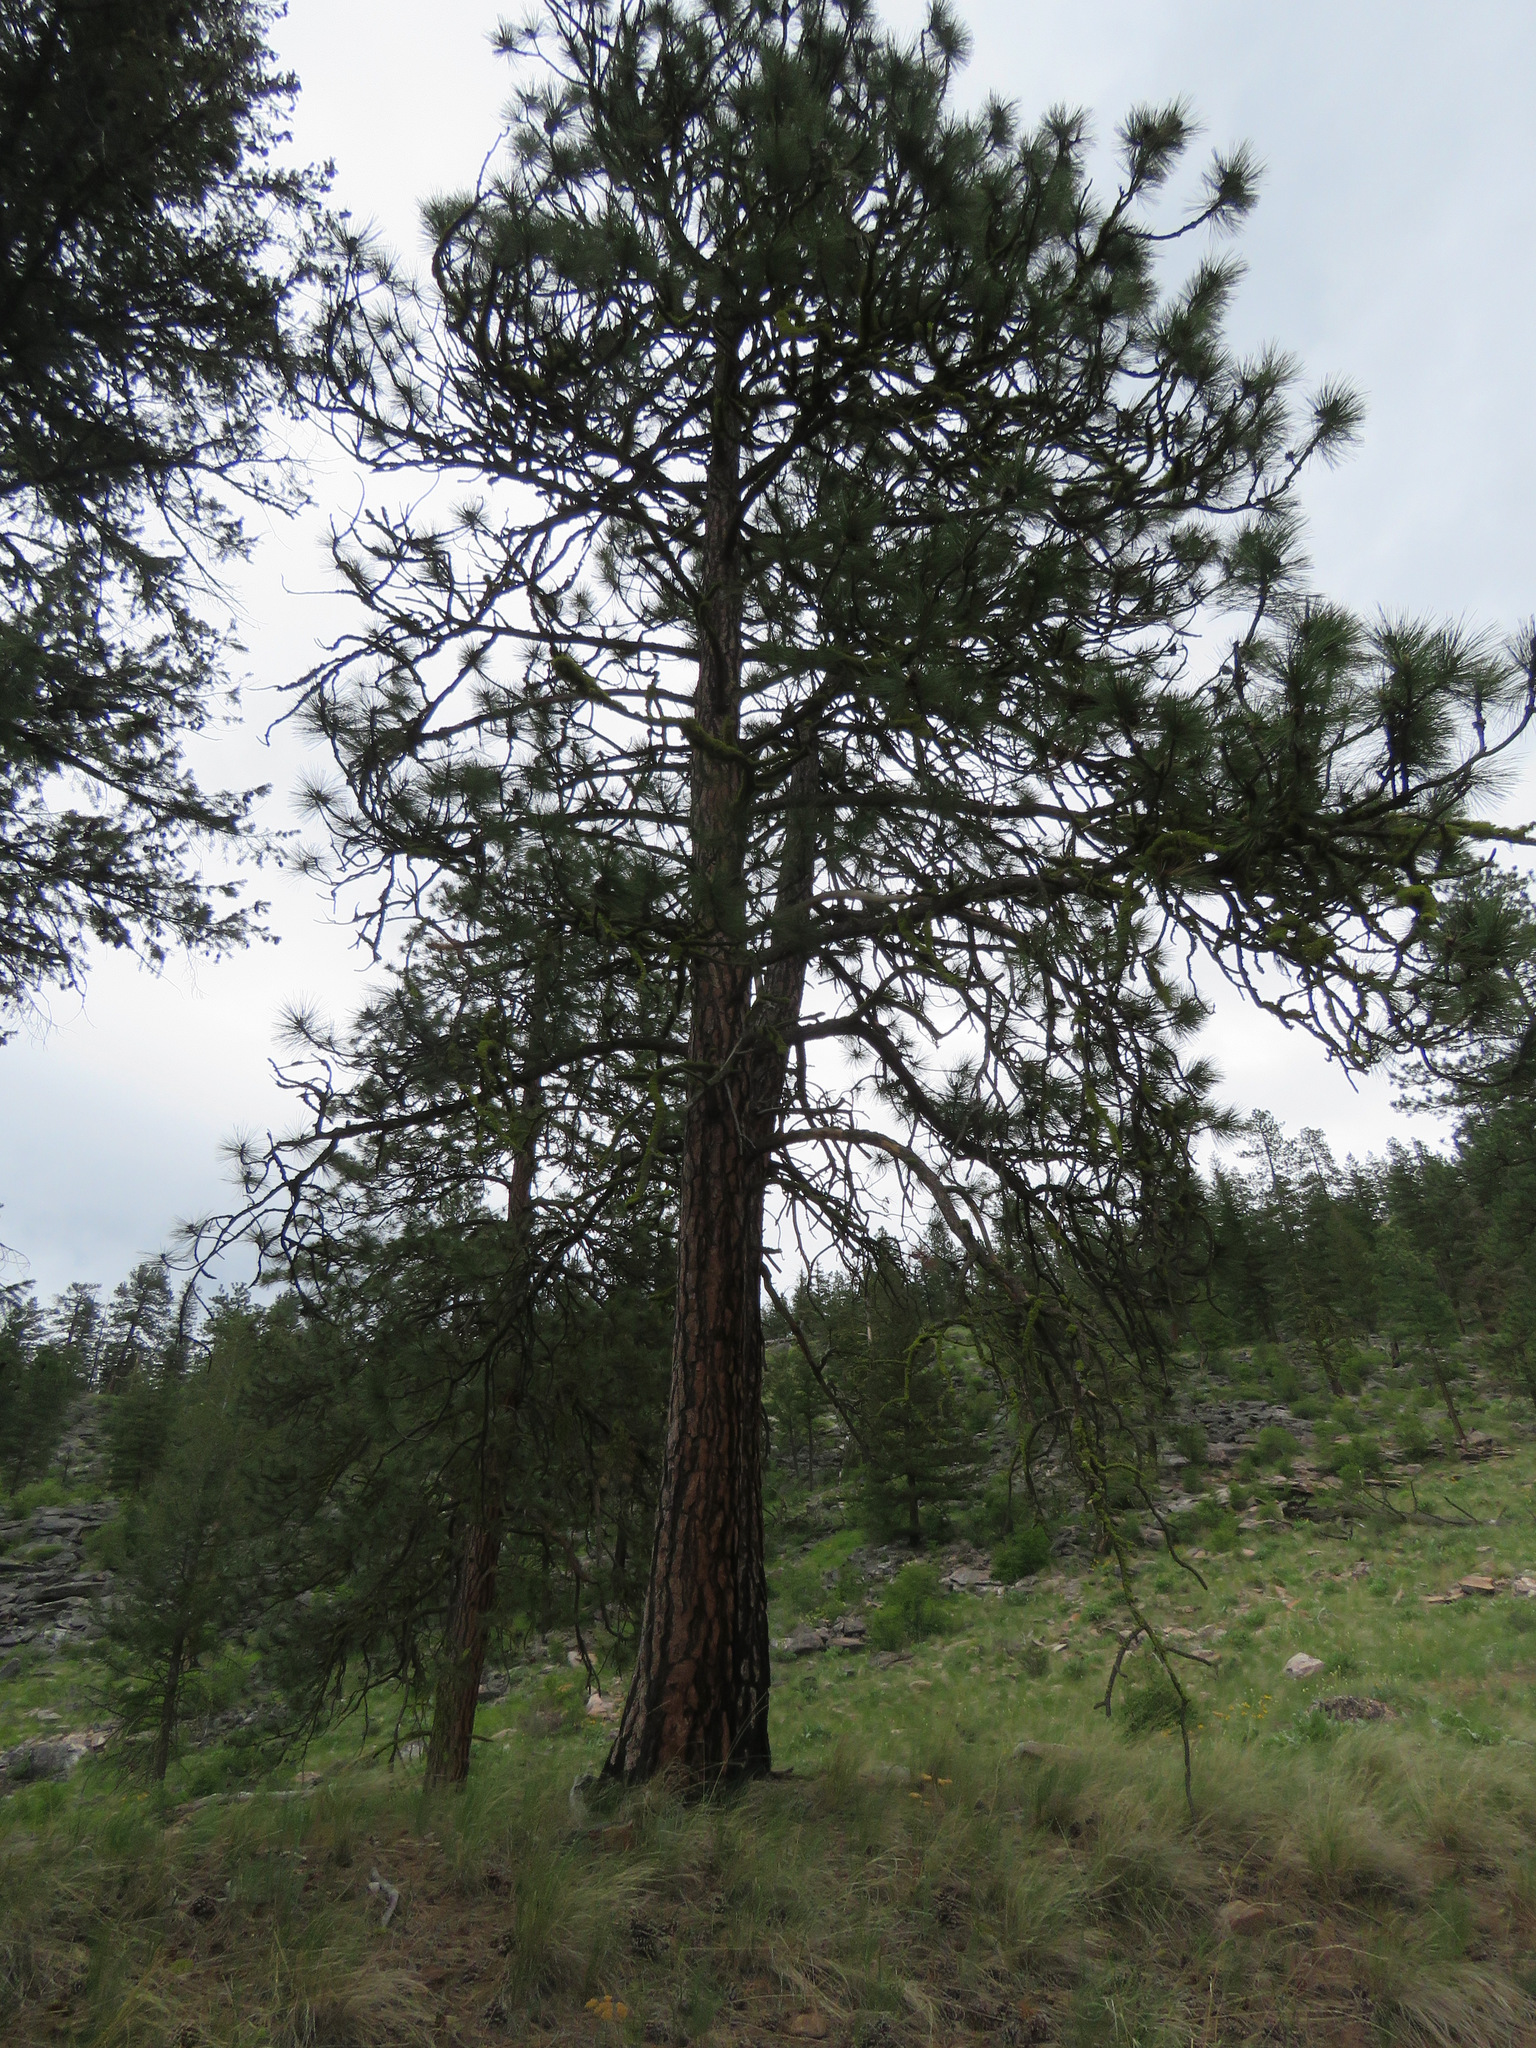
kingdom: Plantae
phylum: Tracheophyta
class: Pinopsida
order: Pinales
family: Pinaceae
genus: Pinus
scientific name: Pinus ponderosa
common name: Western yellow-pine
